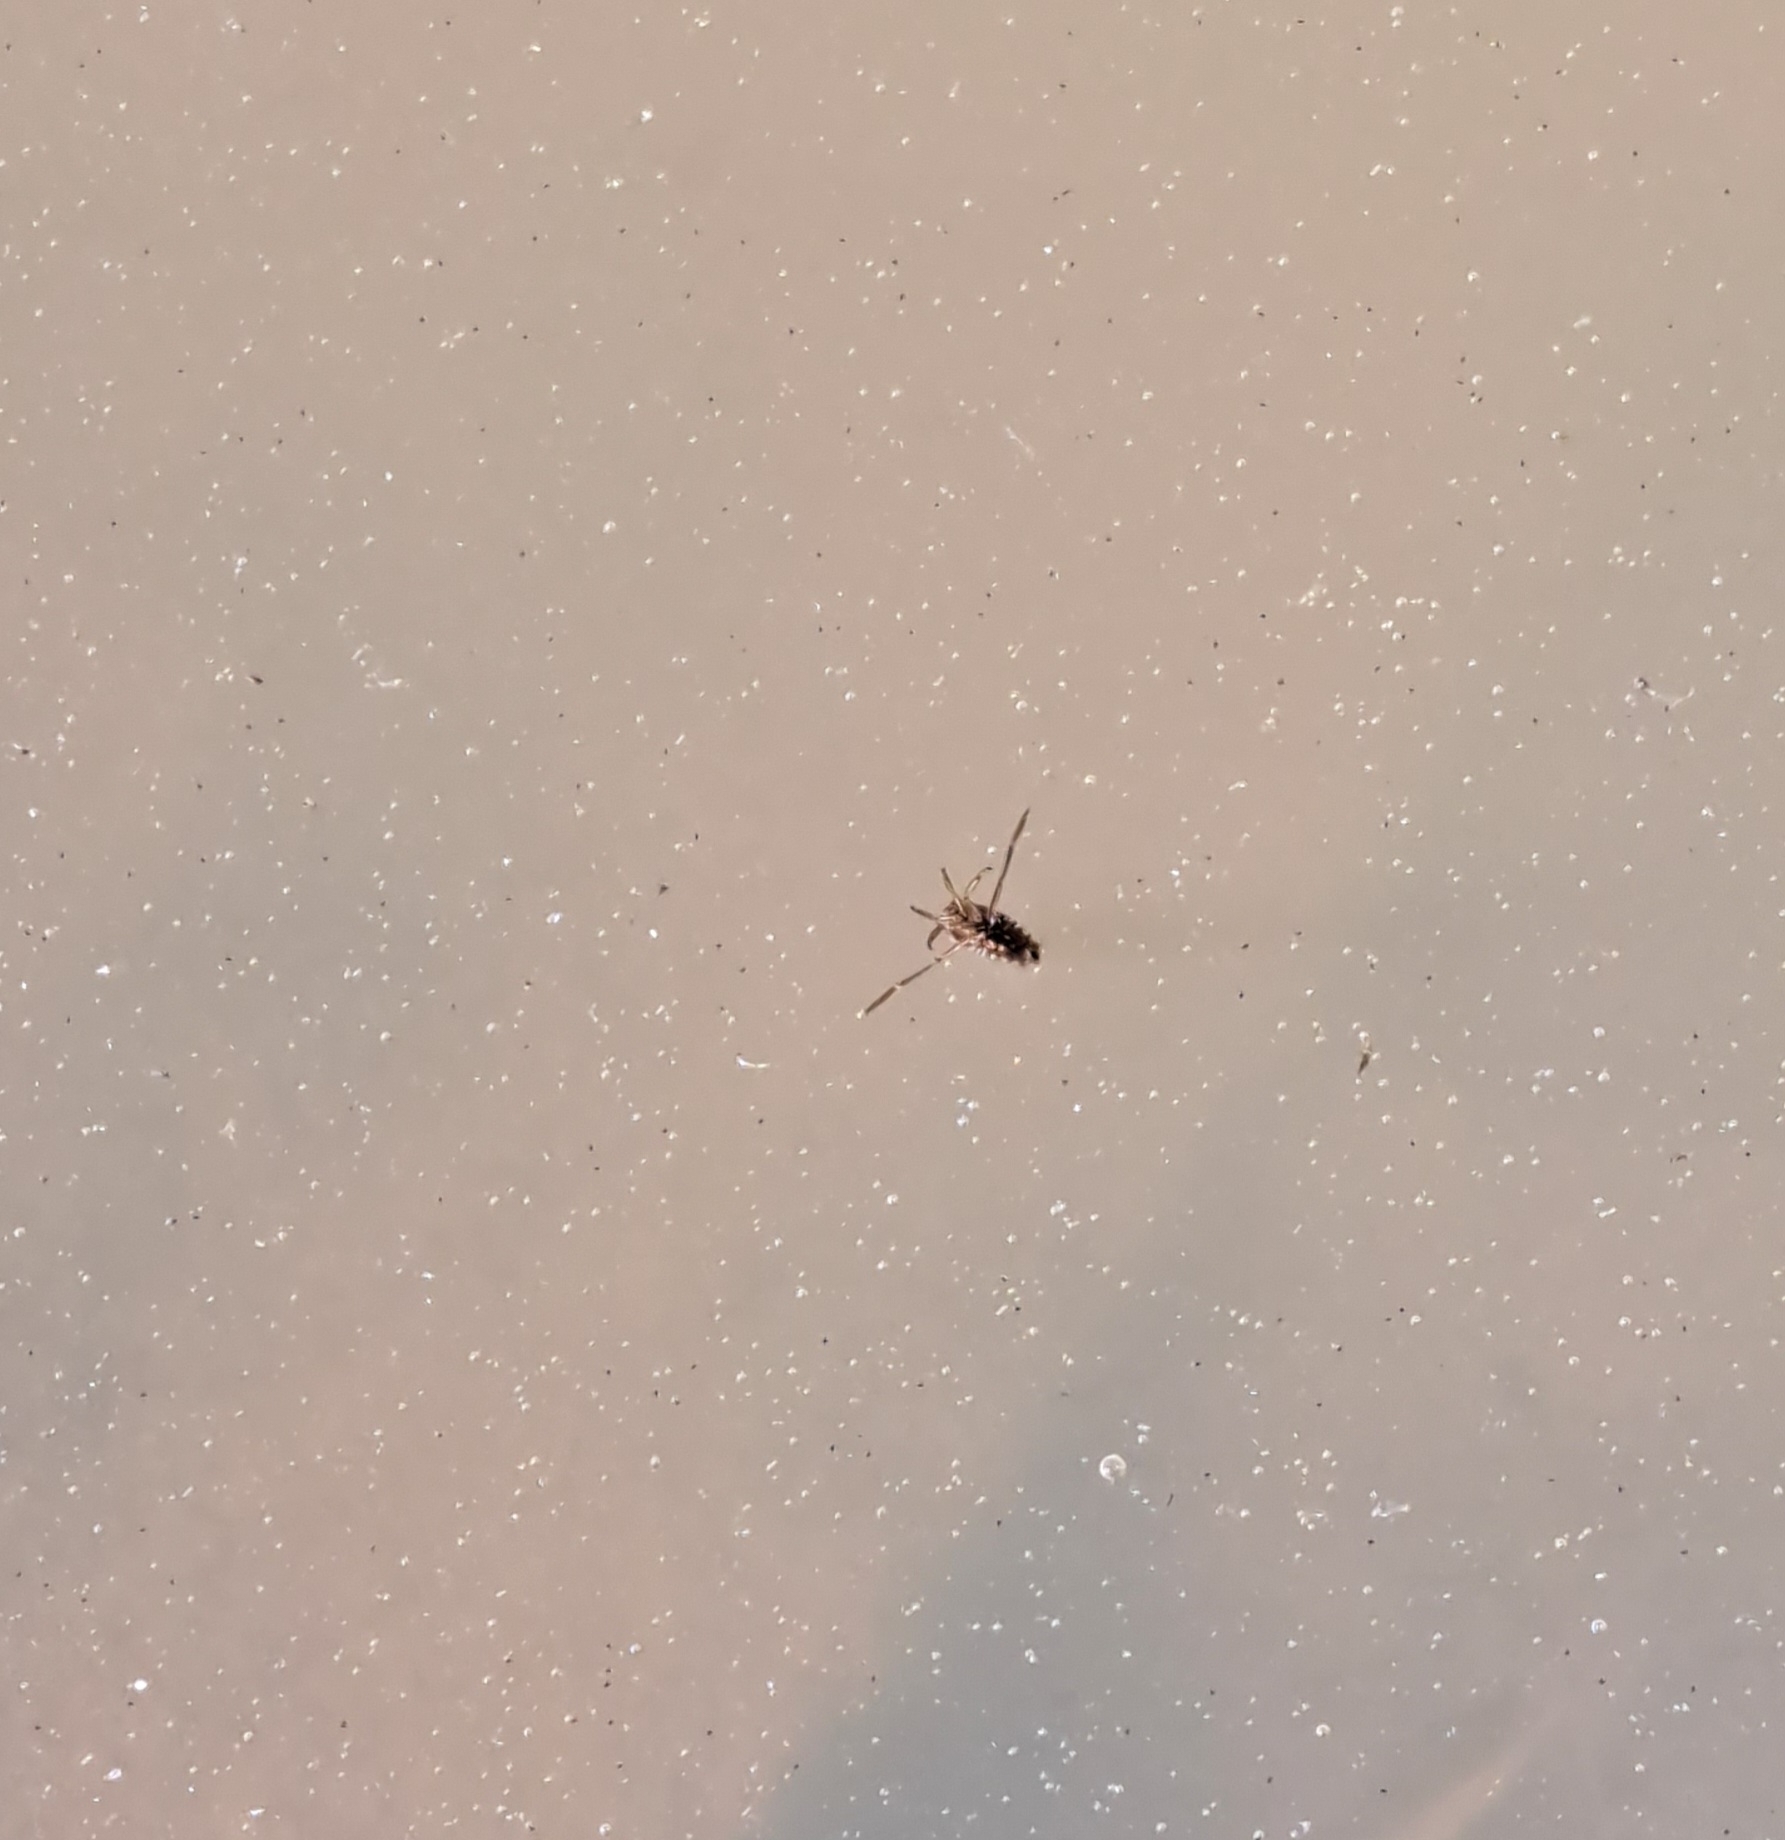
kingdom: Animalia
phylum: Arthropoda
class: Insecta
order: Hemiptera
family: Notonectidae
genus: Notonecta
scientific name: Notonecta
